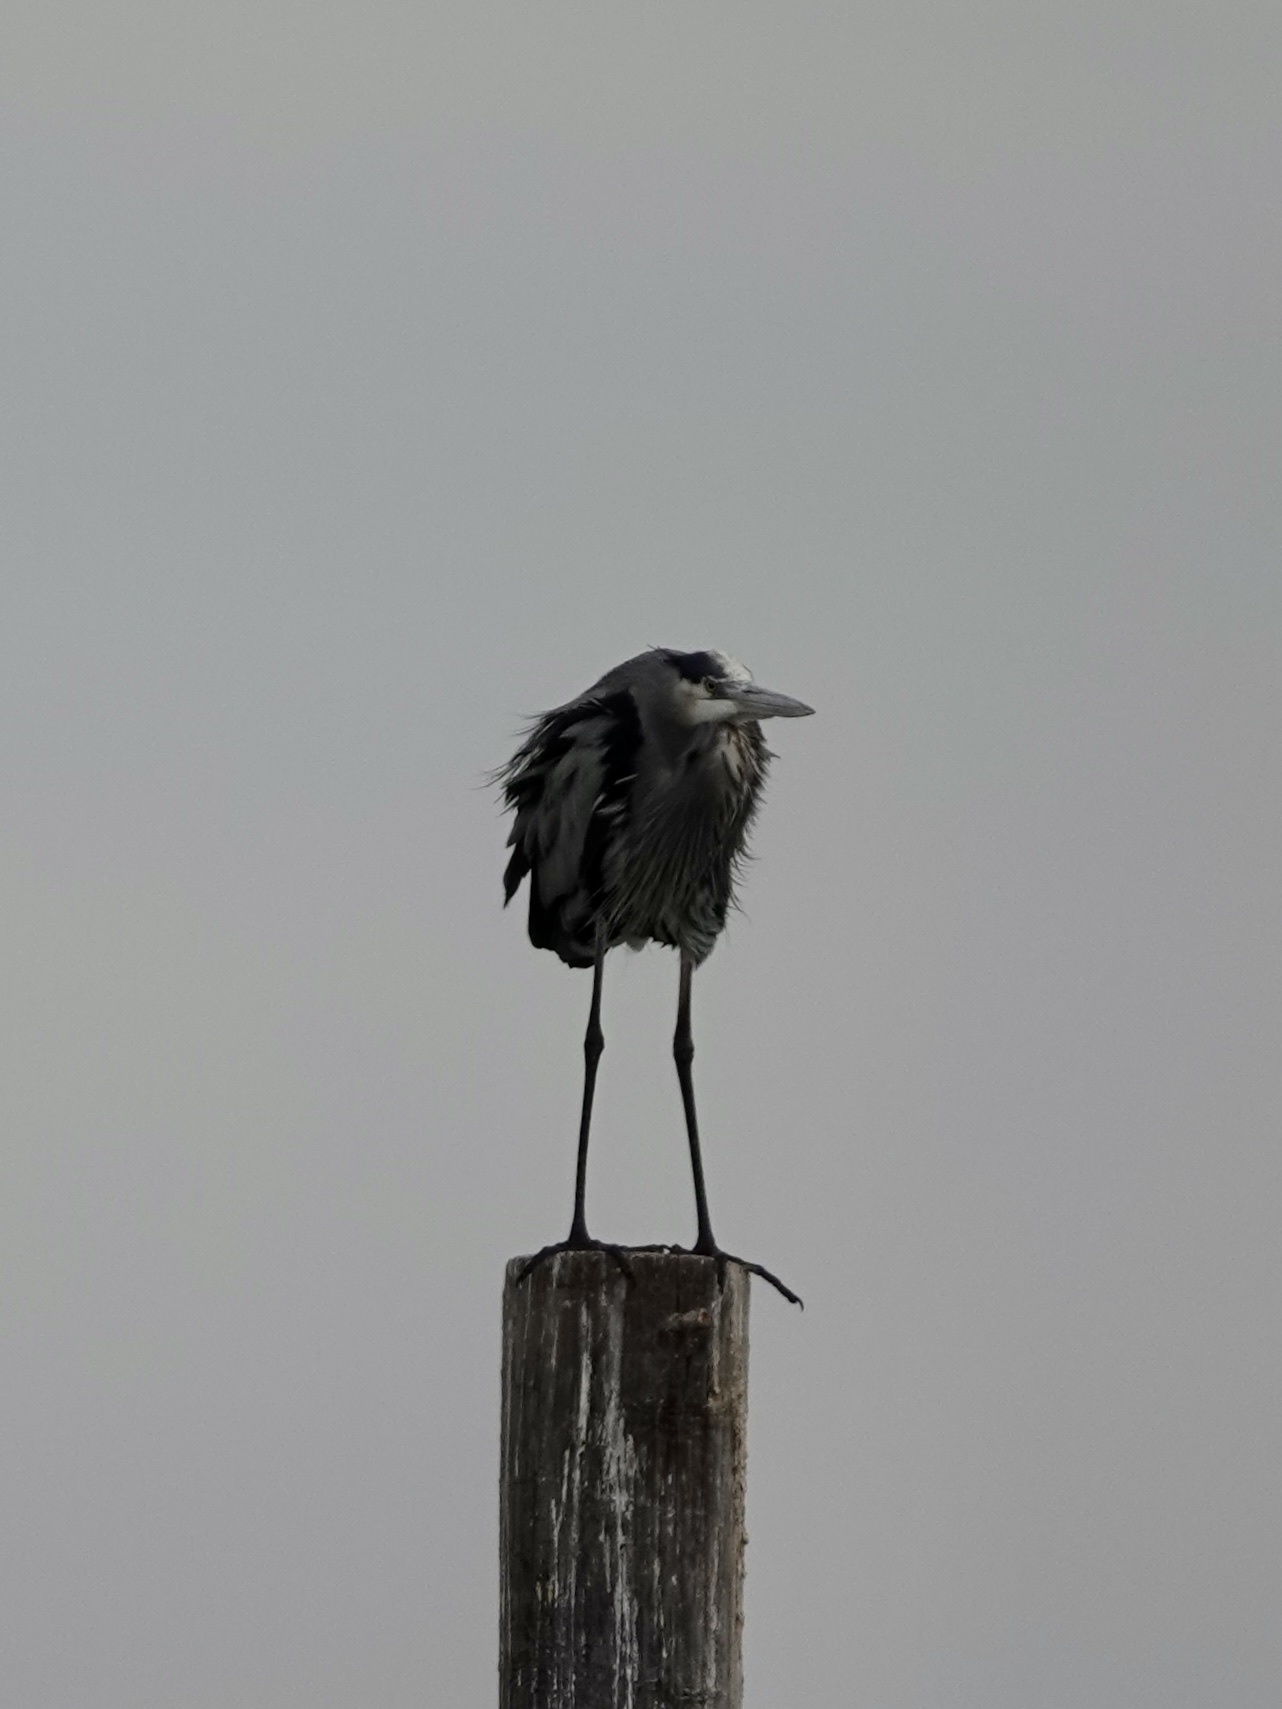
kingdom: Animalia
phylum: Chordata
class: Aves
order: Pelecaniformes
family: Ardeidae
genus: Ardea
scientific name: Ardea herodias
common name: Great blue heron
